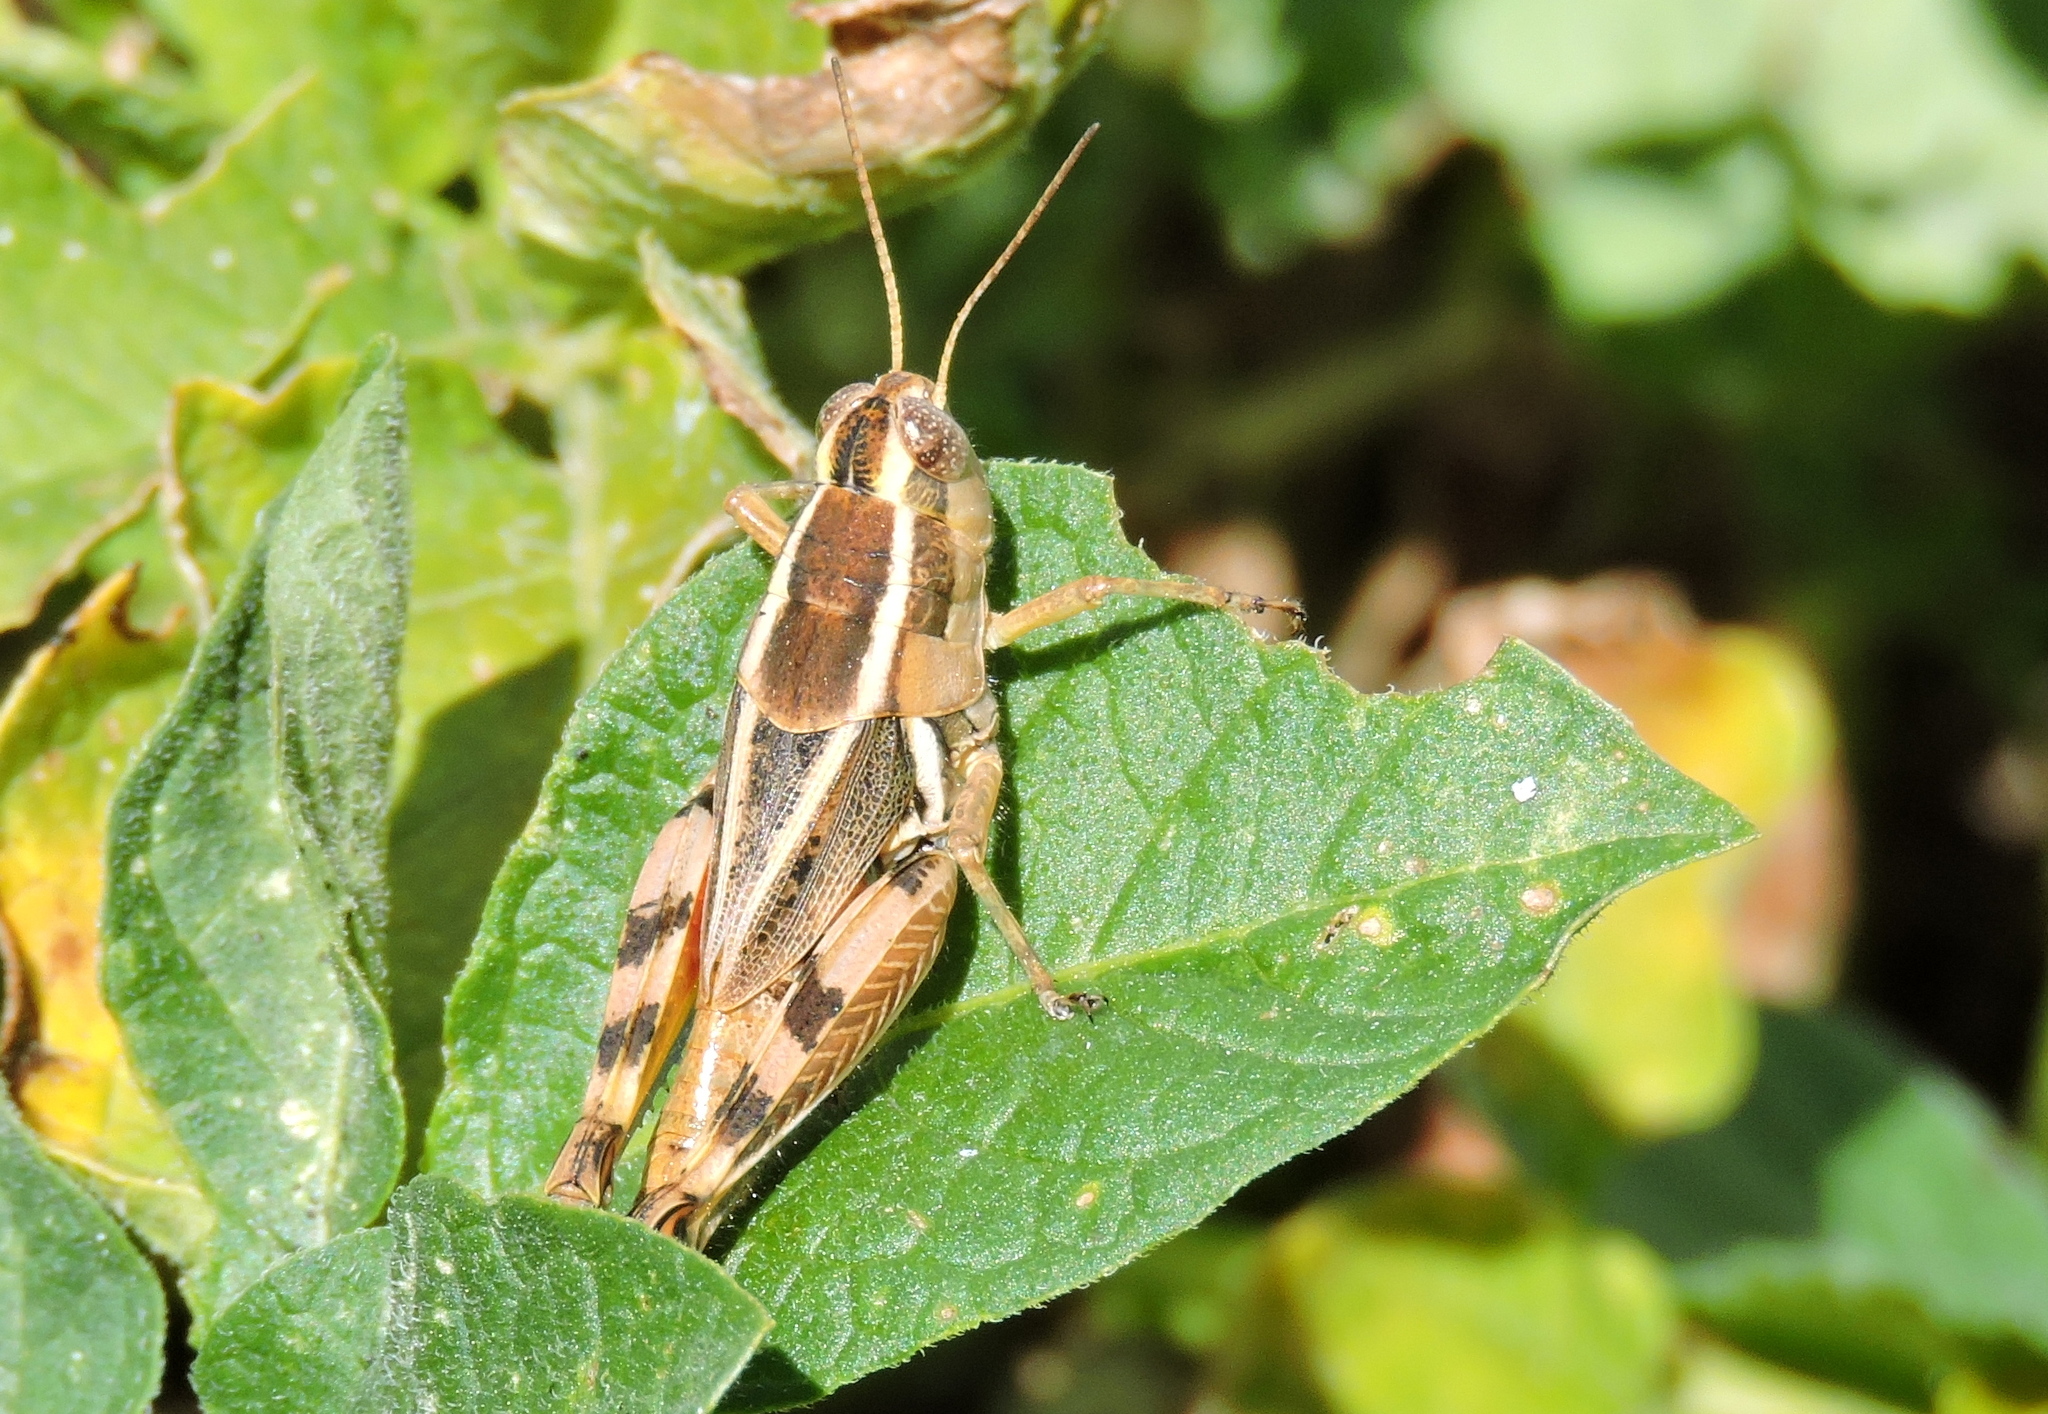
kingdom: Animalia
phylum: Arthropoda
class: Insecta
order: Orthoptera
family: Acrididae
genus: Dichroplus
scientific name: Dichroplus vittatus
